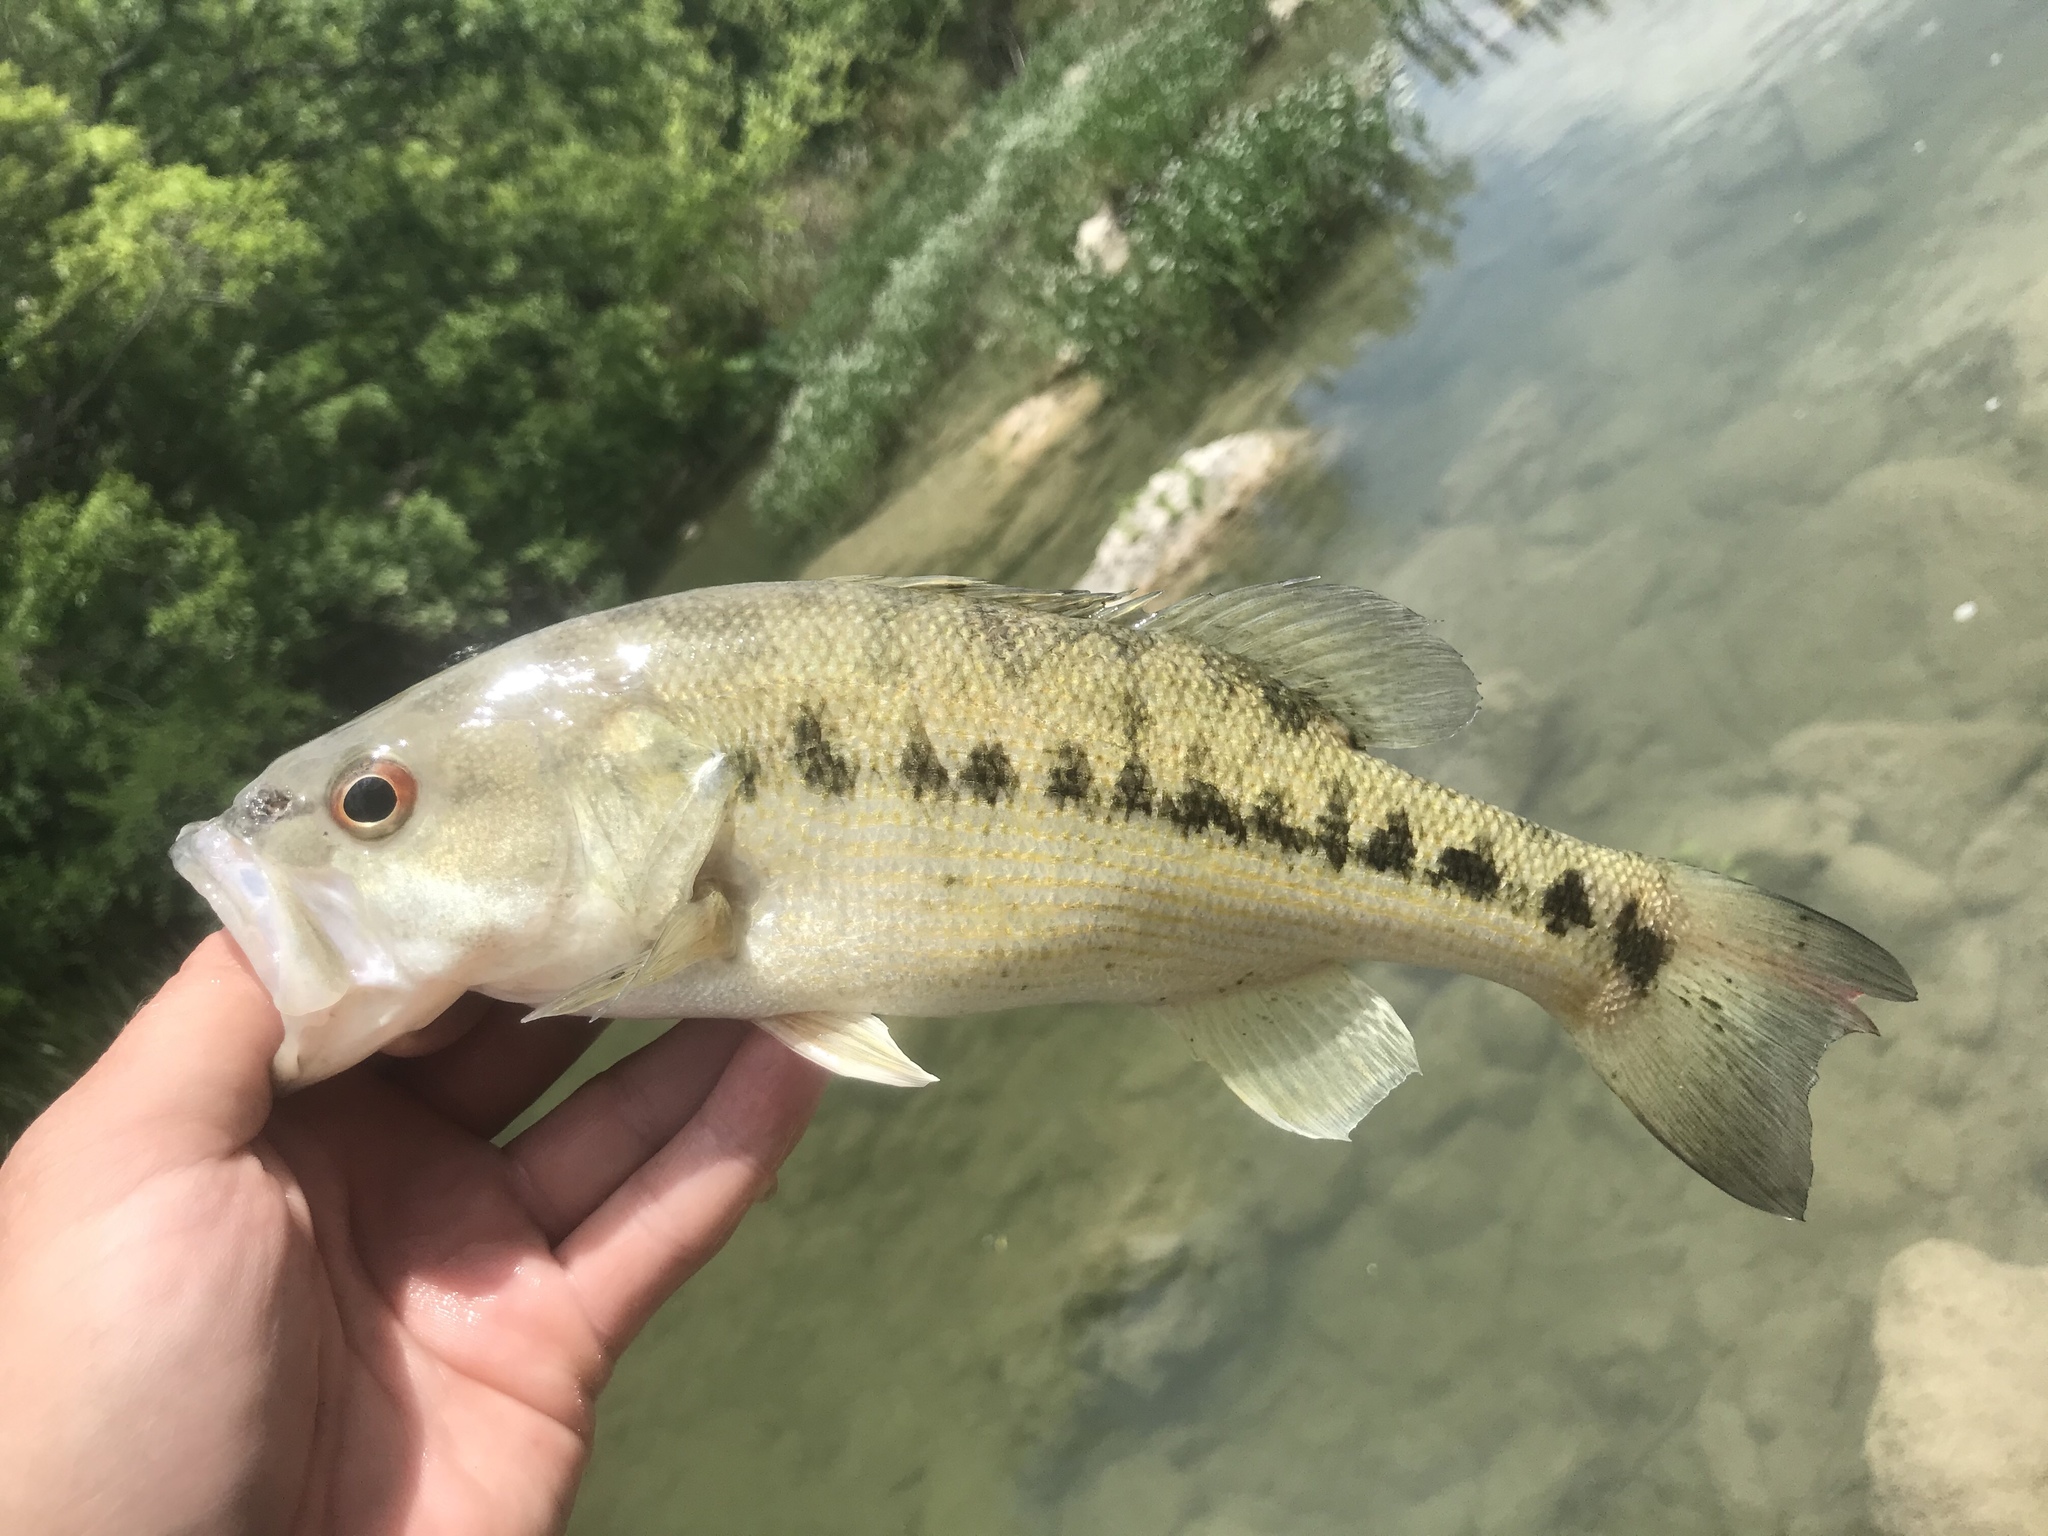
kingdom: Animalia
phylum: Chordata
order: Perciformes
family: Centrarchidae
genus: Micropterus
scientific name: Micropterus treculii
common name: Guadalupe bass
